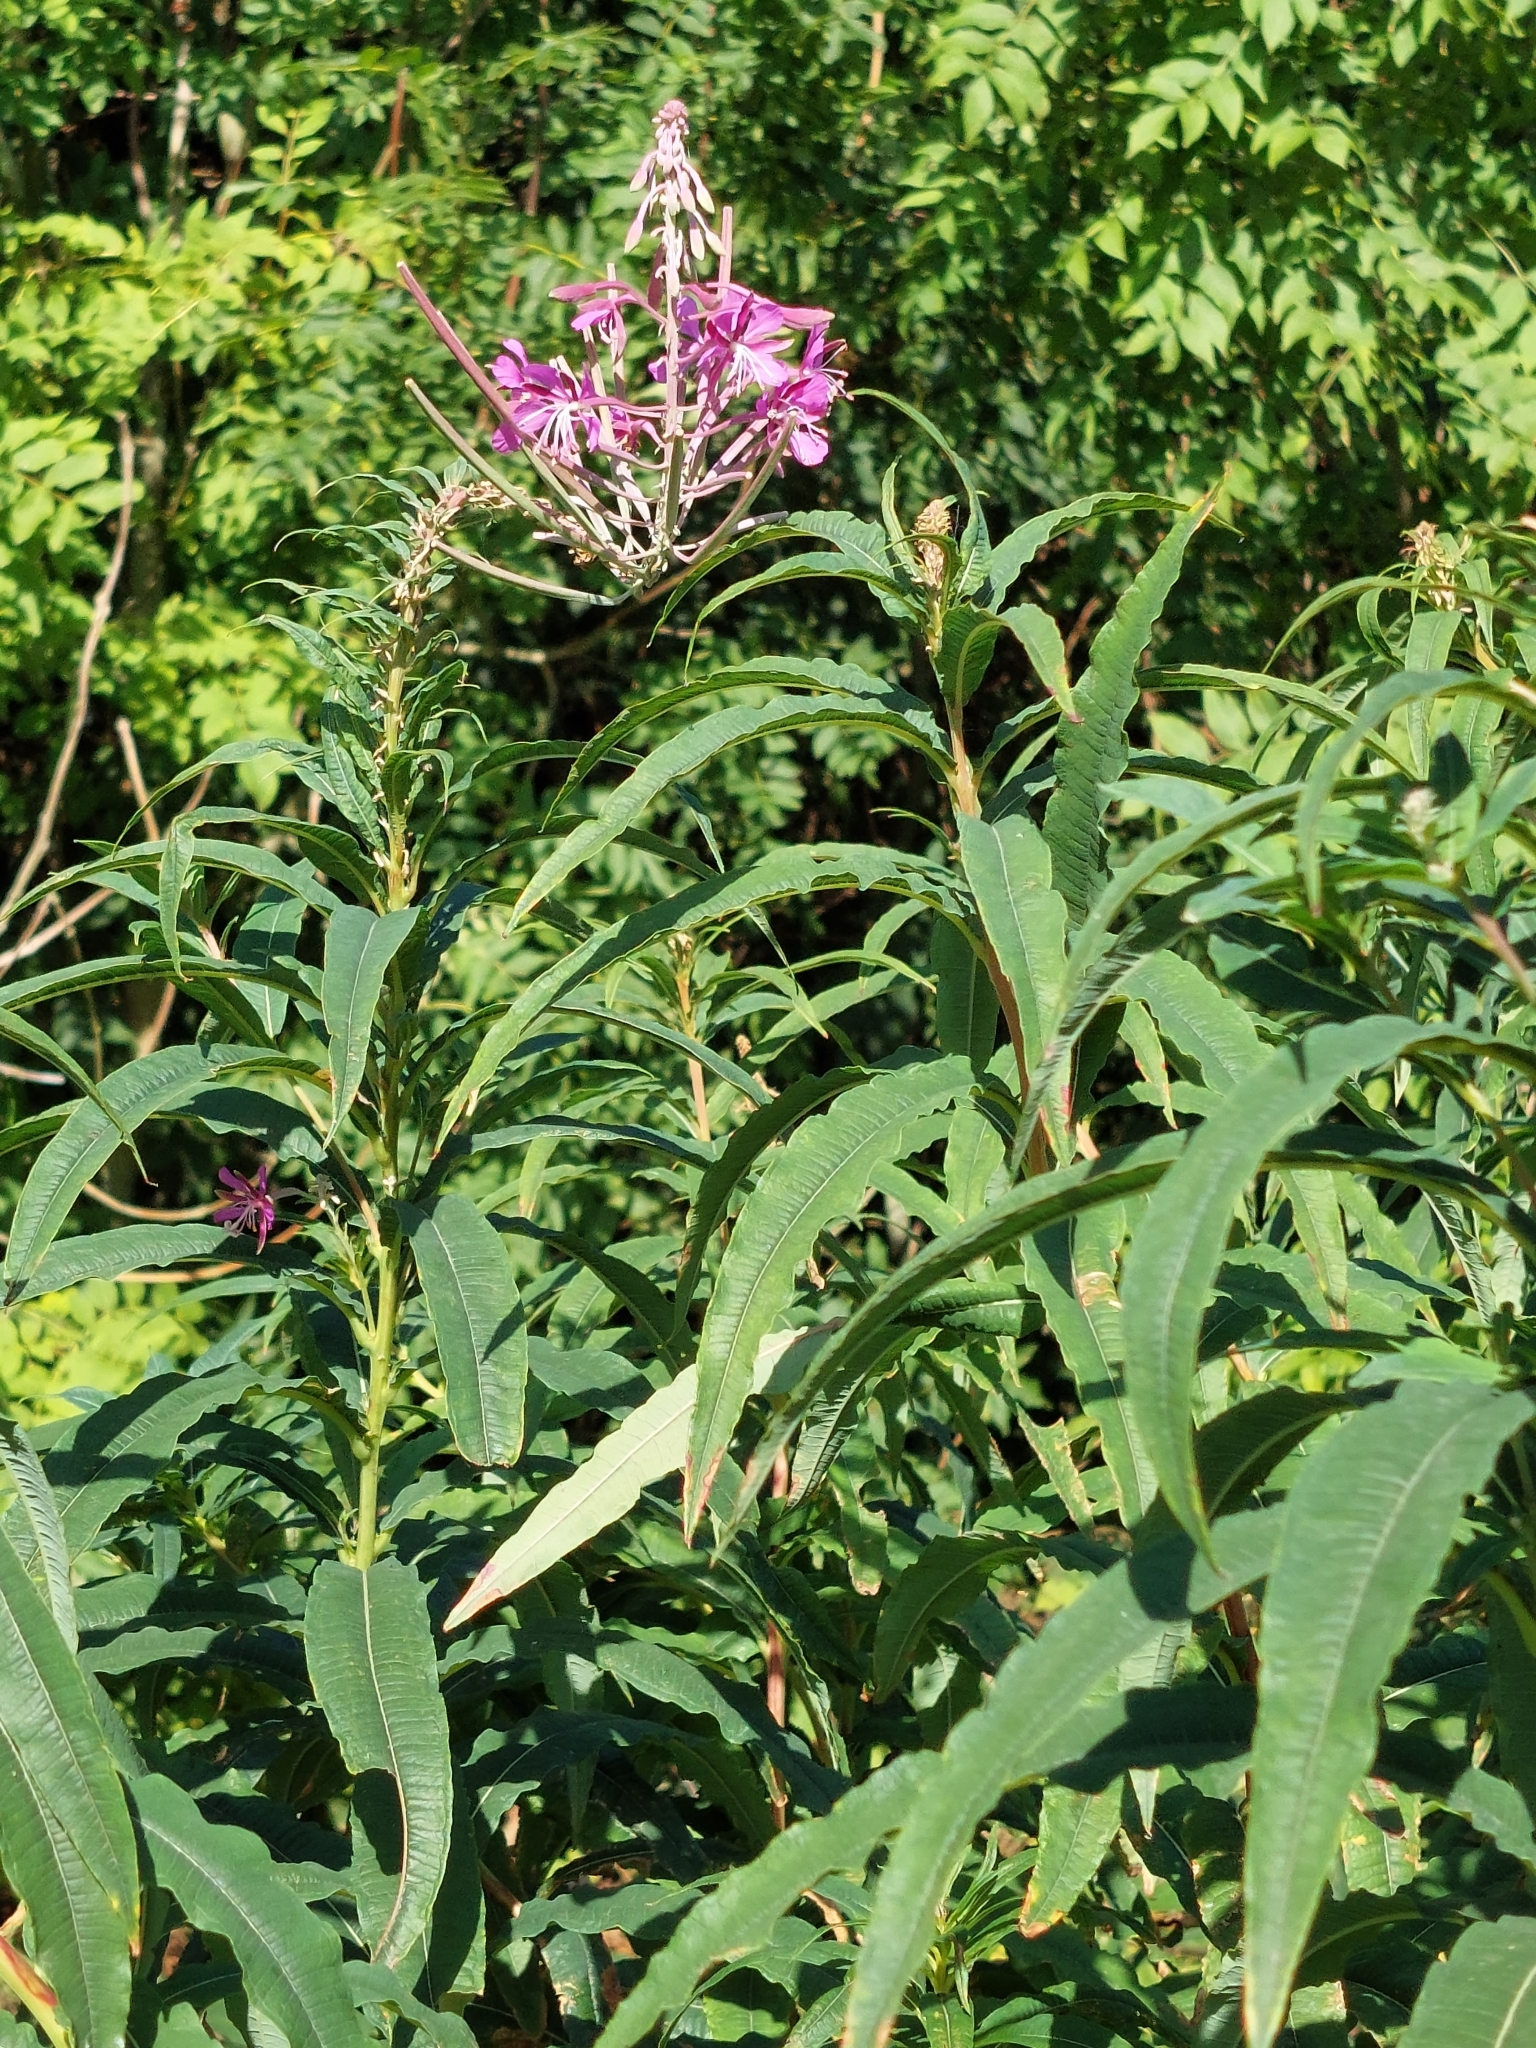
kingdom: Plantae
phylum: Tracheophyta
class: Magnoliopsida
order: Myrtales
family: Onagraceae
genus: Chamaenerion
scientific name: Chamaenerion angustifolium
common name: Fireweed
